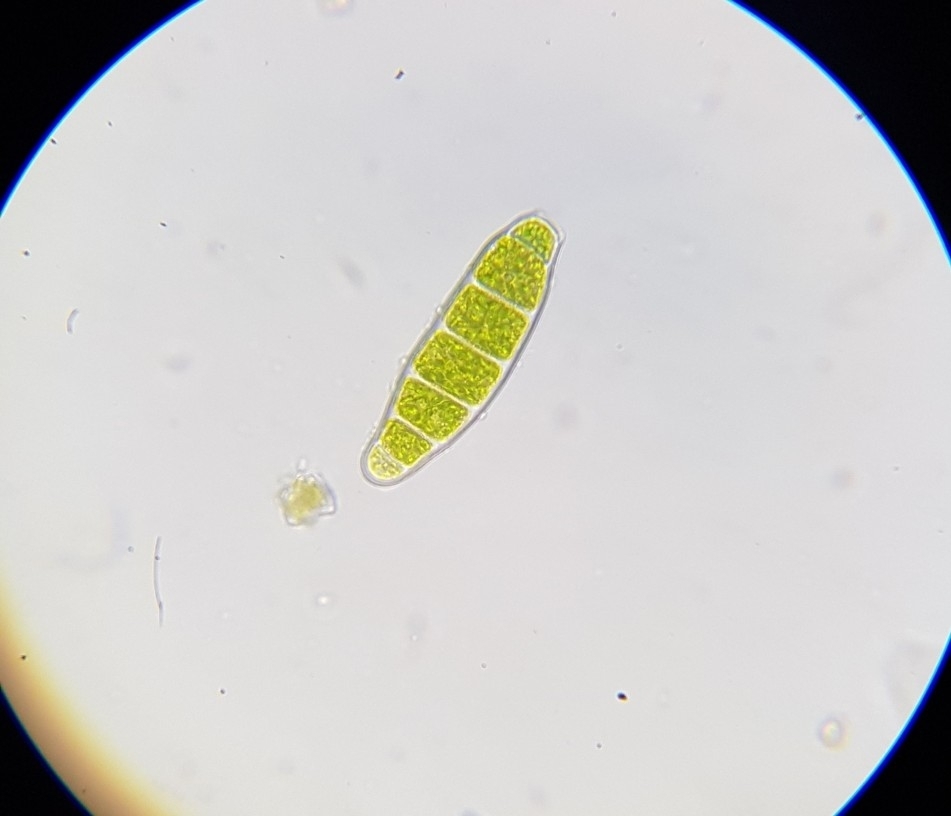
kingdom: Plantae
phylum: Bryophyta
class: Bryopsida
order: Orthotrichales
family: Orthotrichaceae
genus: Zygodon
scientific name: Zygodon conoideus
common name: Lesser yoke-moss
